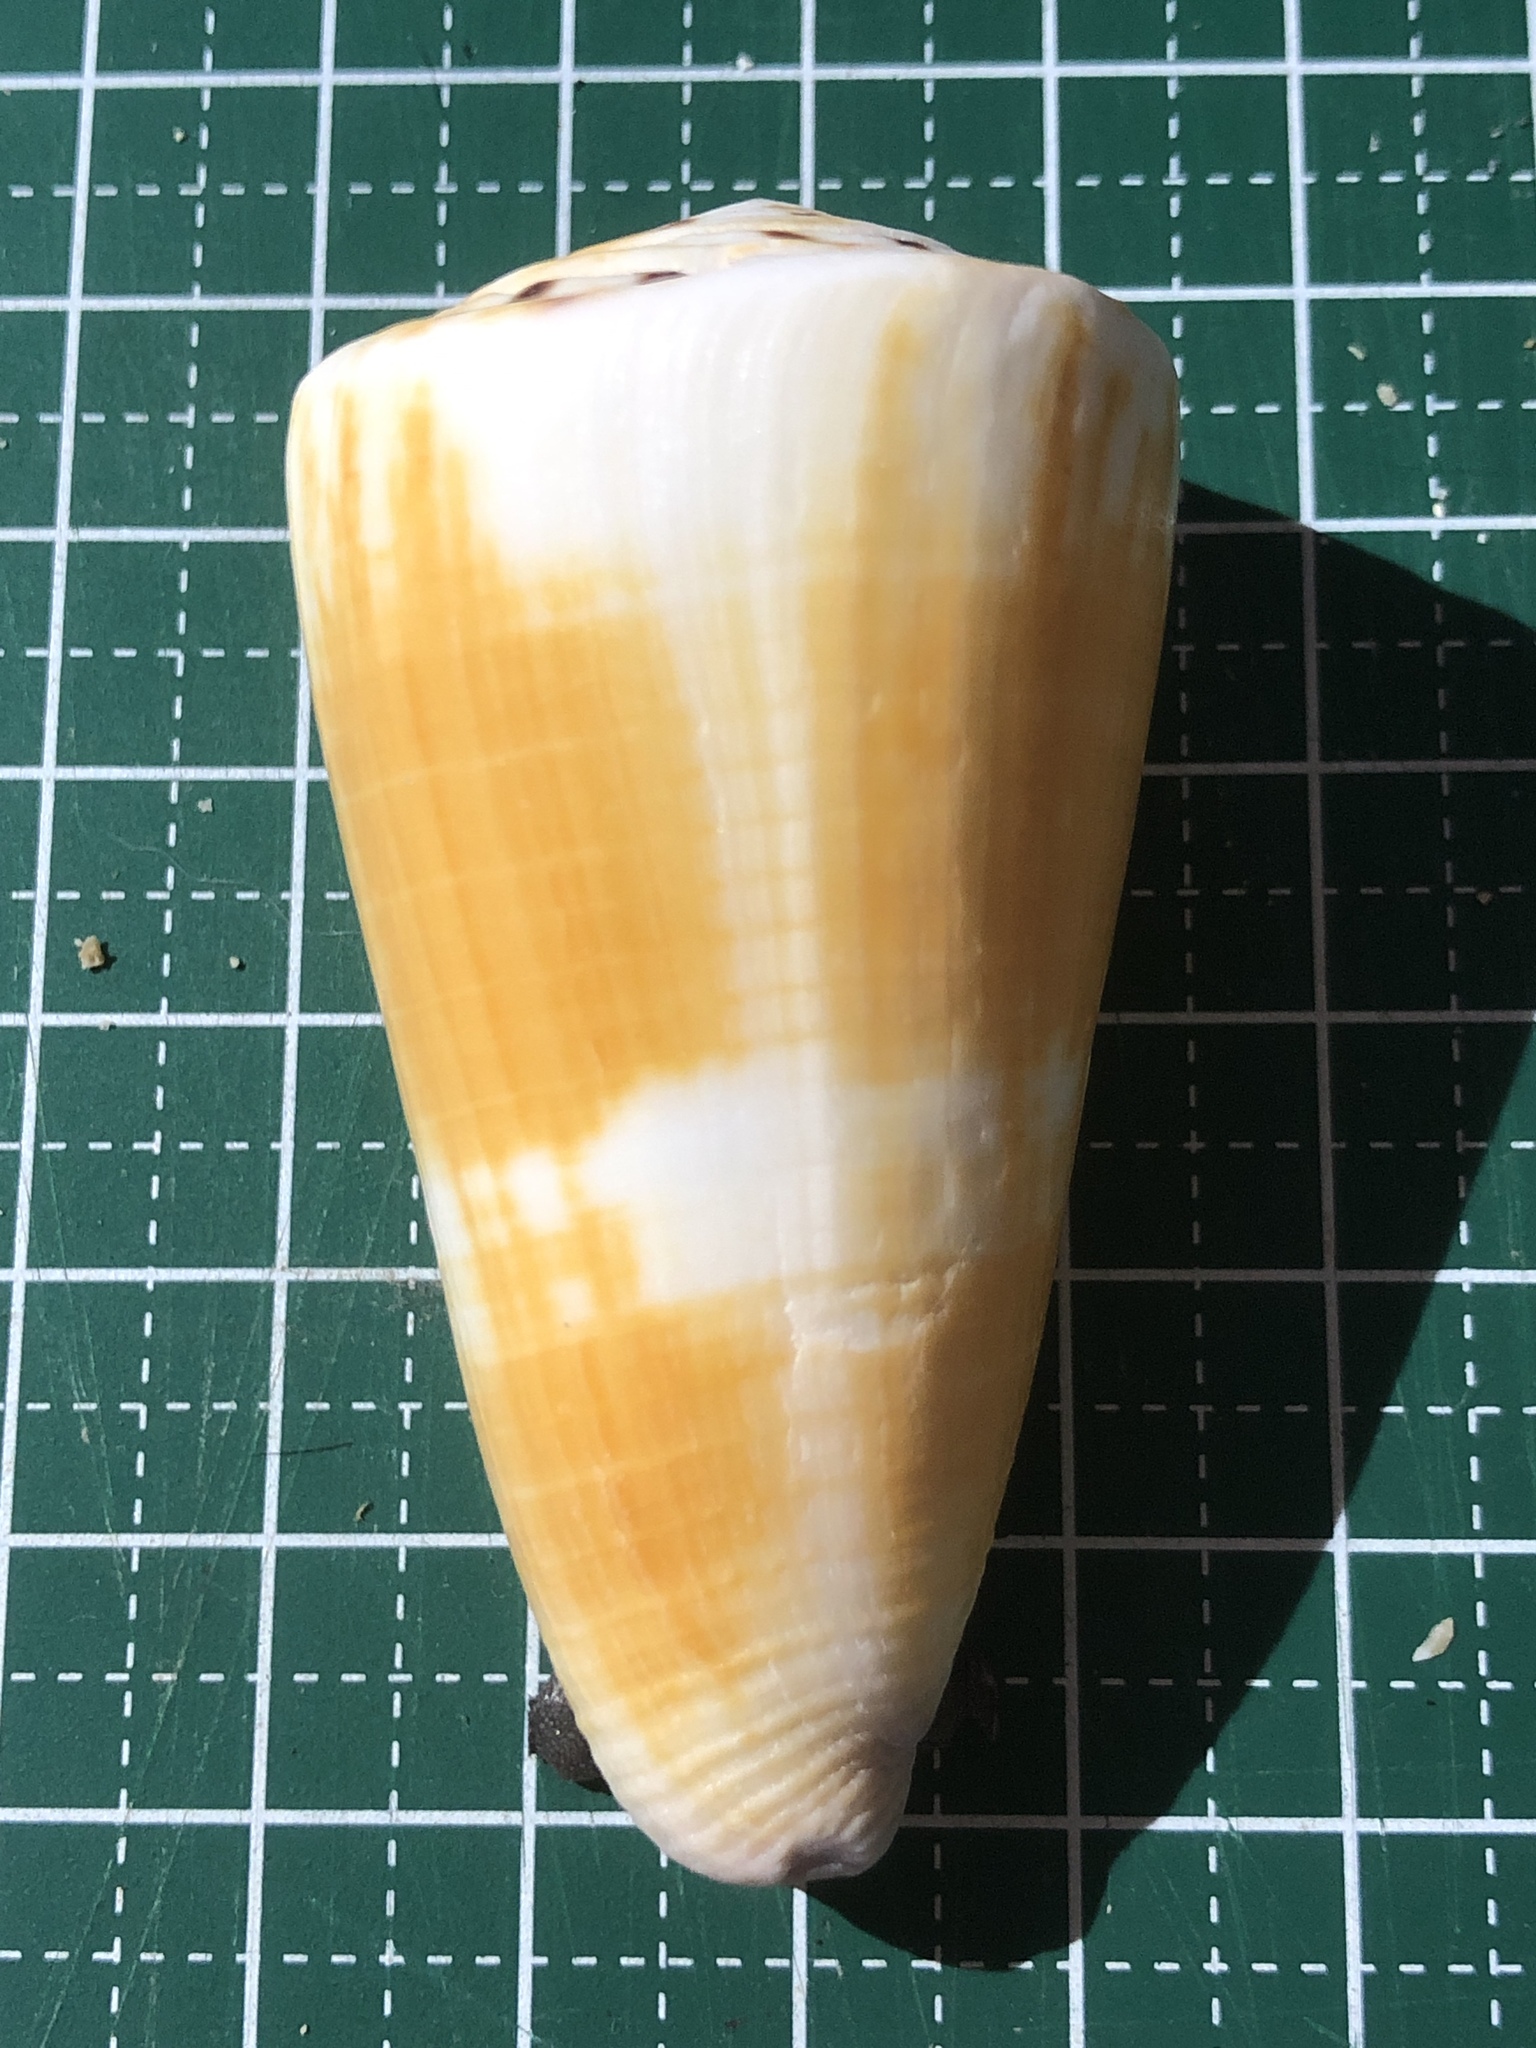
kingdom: Animalia
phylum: Mollusca
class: Gastropoda
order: Neogastropoda
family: Conidae
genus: Conus
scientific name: Conus planorbis
